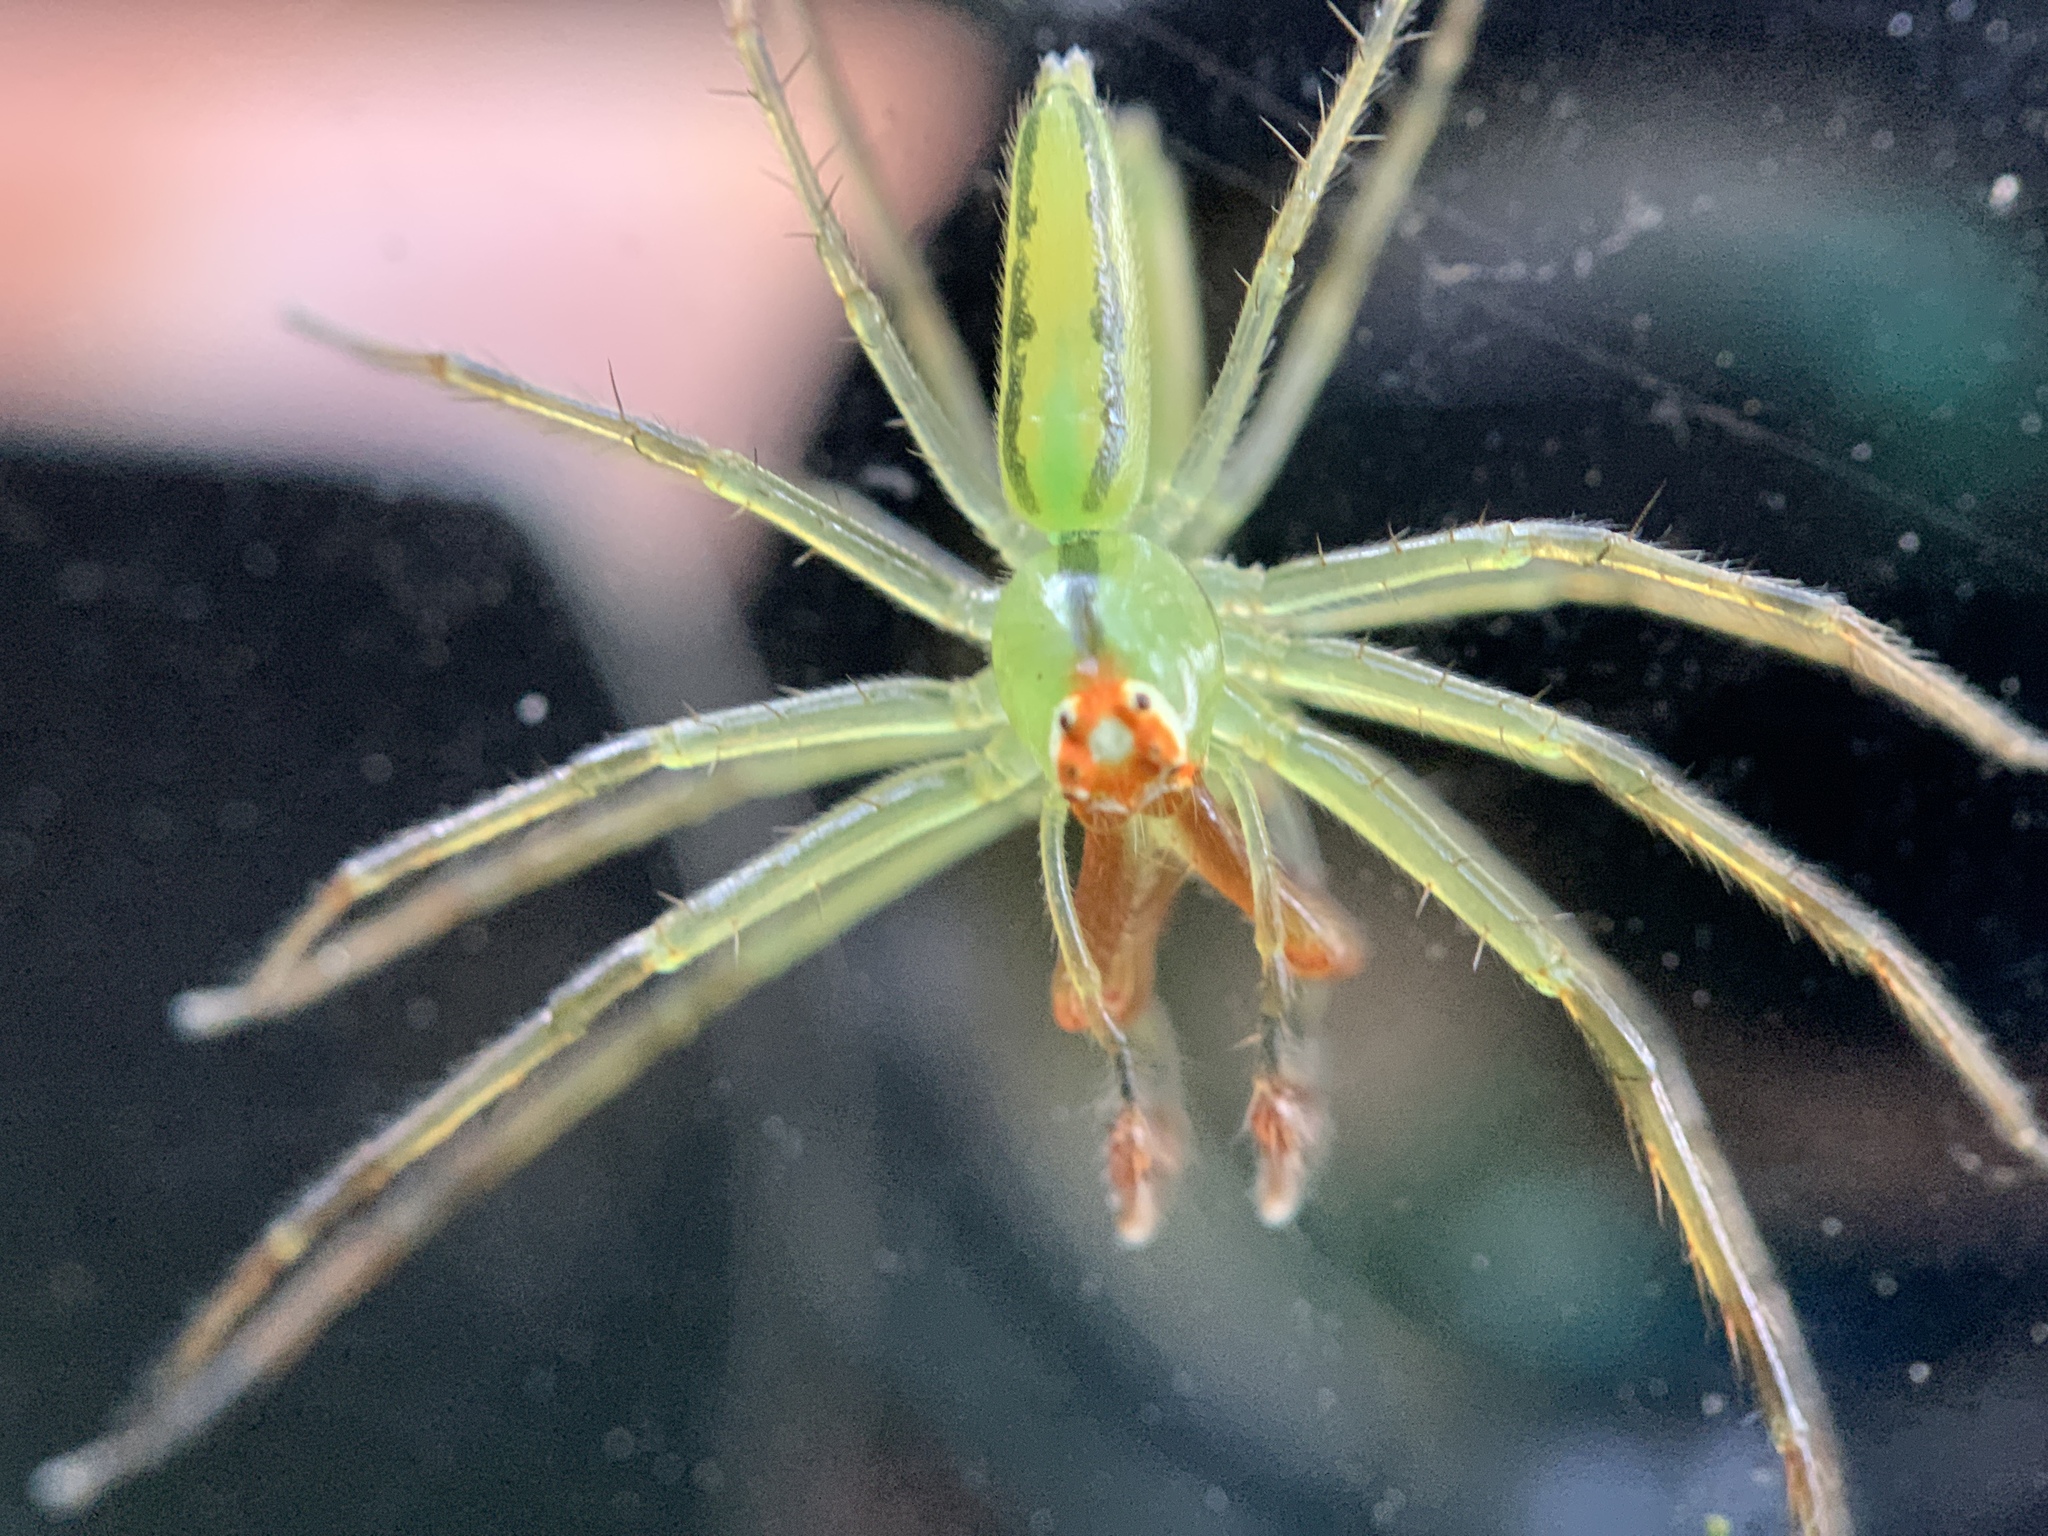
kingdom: Animalia
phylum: Arthropoda
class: Arachnida
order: Araneae
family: Salticidae
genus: Lyssomanes
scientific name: Lyssomanes viridis
